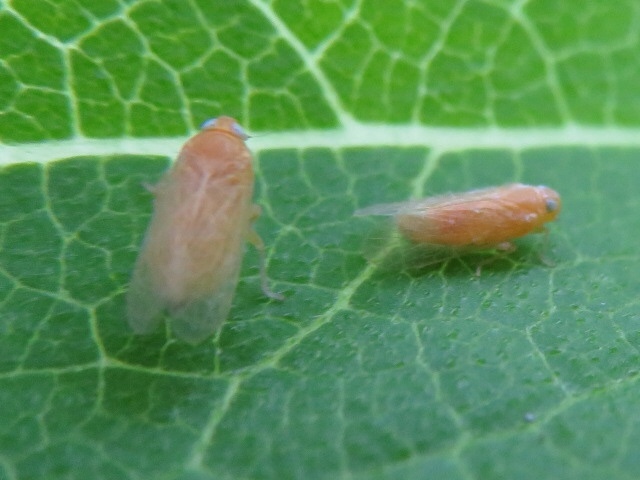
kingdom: Animalia
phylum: Arthropoda
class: Insecta
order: Hemiptera
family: Cixiidae
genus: Haplaxius
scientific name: Haplaxius fulvus
